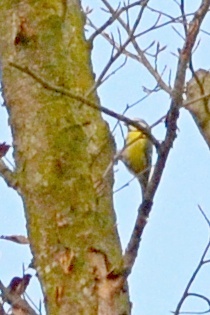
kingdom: Animalia
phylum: Chordata
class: Aves
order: Passeriformes
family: Paridae
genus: Cyanistes
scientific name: Cyanistes caeruleus
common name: Eurasian blue tit
